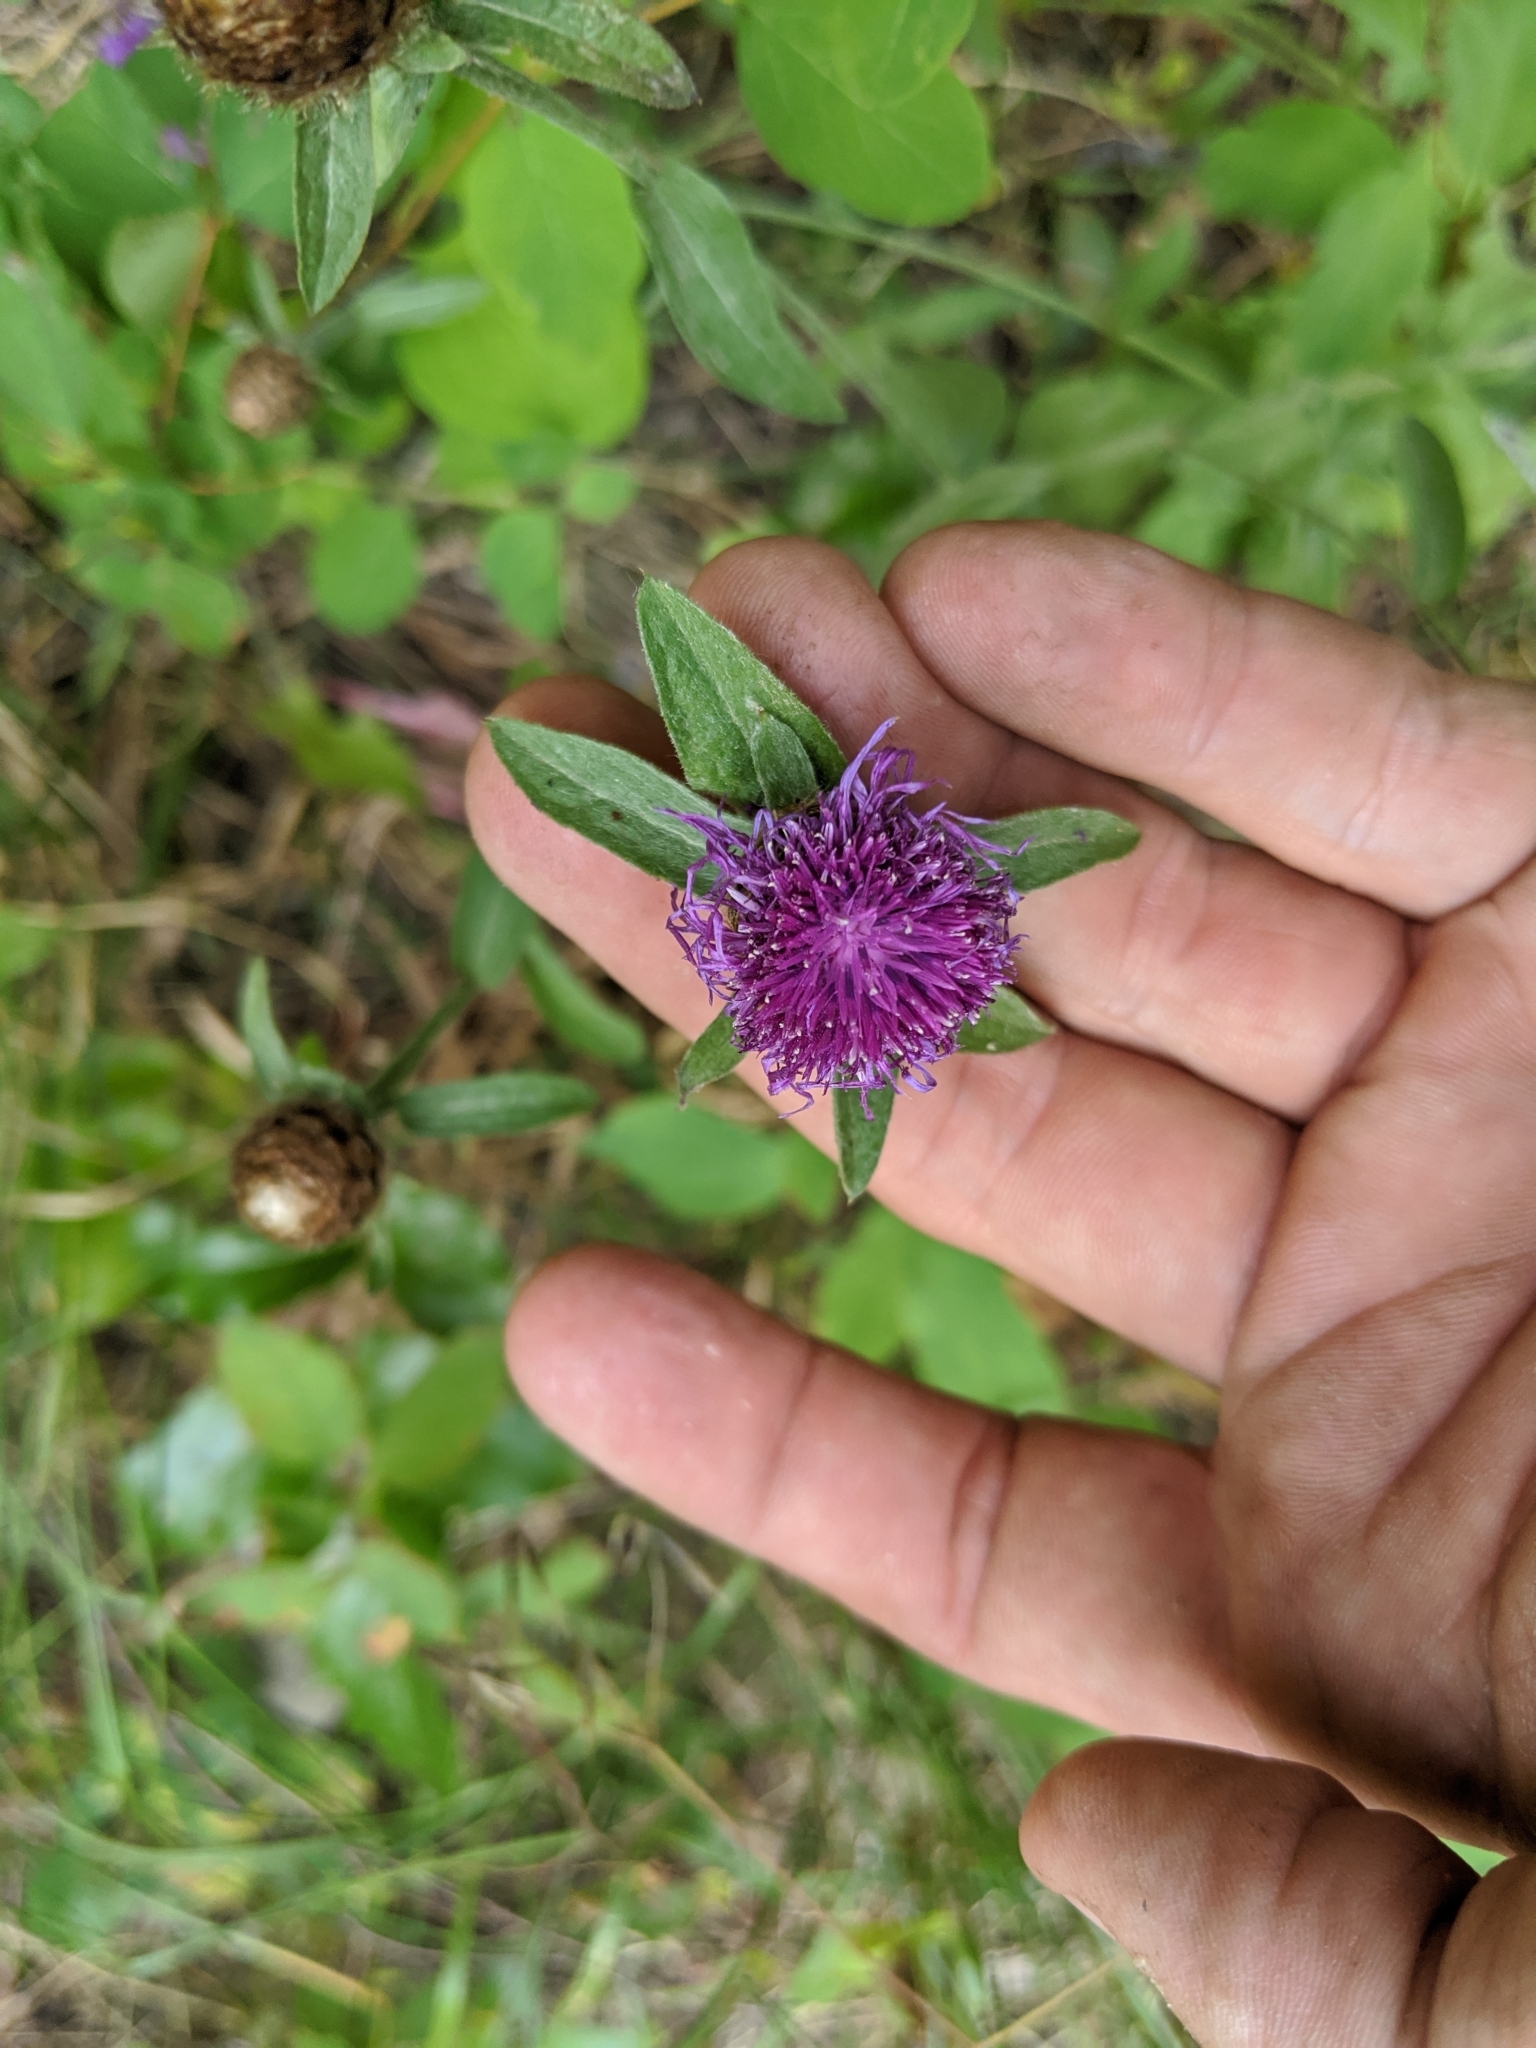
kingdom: Plantae
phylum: Tracheophyta
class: Magnoliopsida
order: Asterales
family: Asteraceae
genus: Centaurea
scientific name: Centaurea nigra
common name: Lesser knapweed
